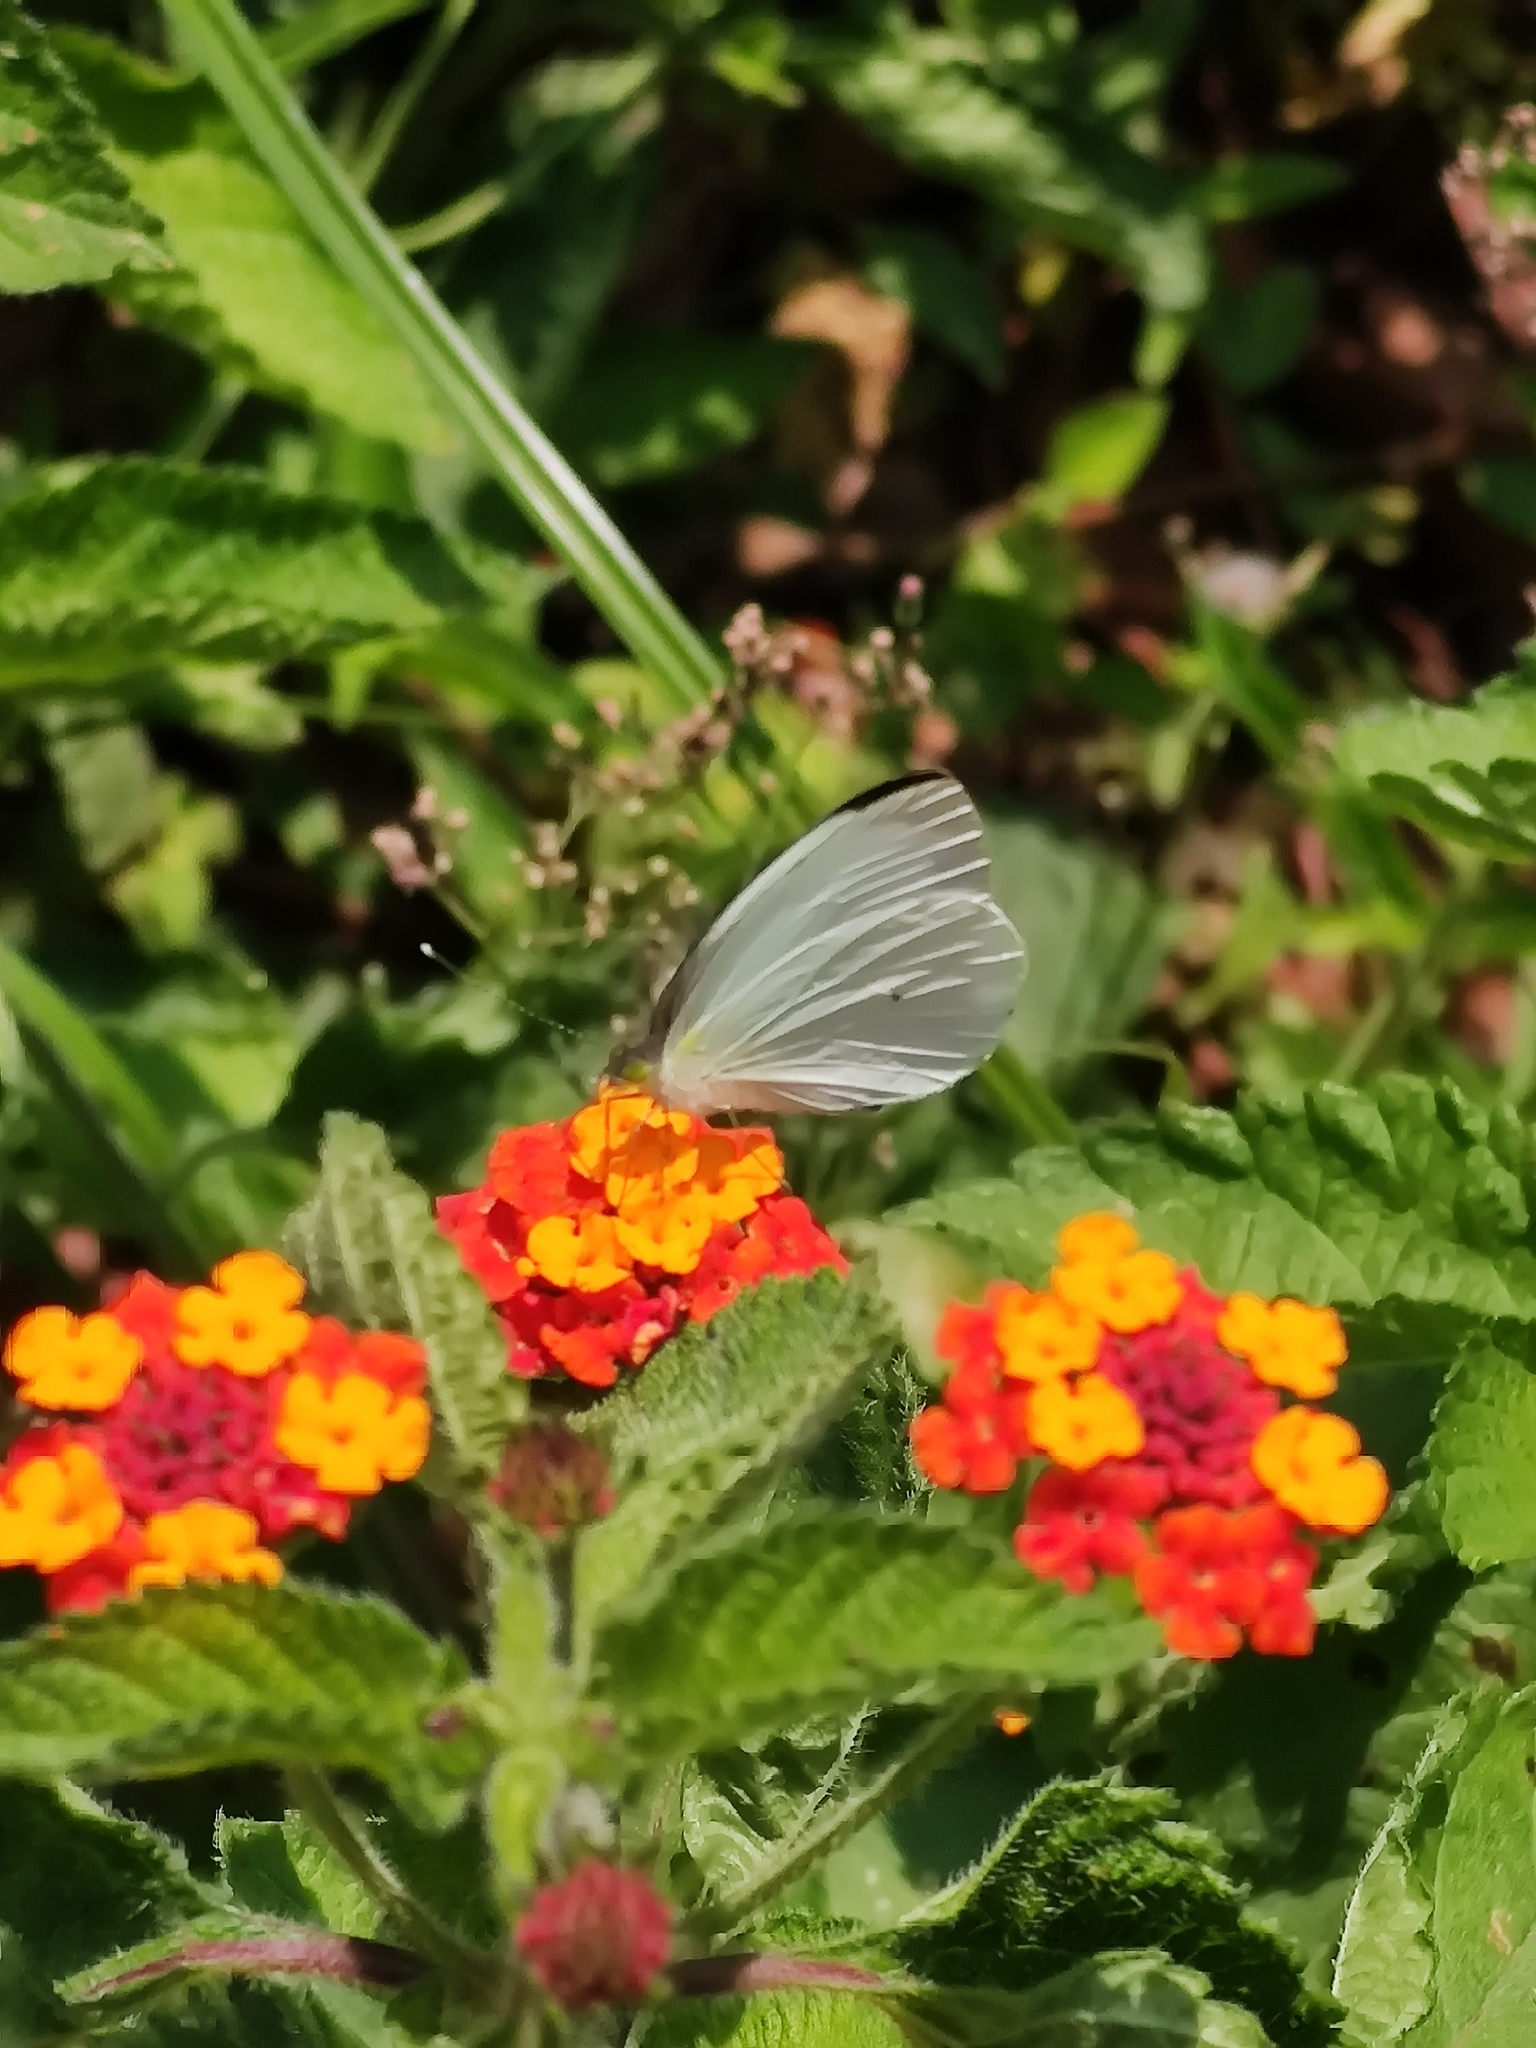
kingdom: Animalia
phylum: Arthropoda
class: Insecta
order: Lepidoptera
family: Pieridae
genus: Leptophobia
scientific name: Leptophobia aripa
